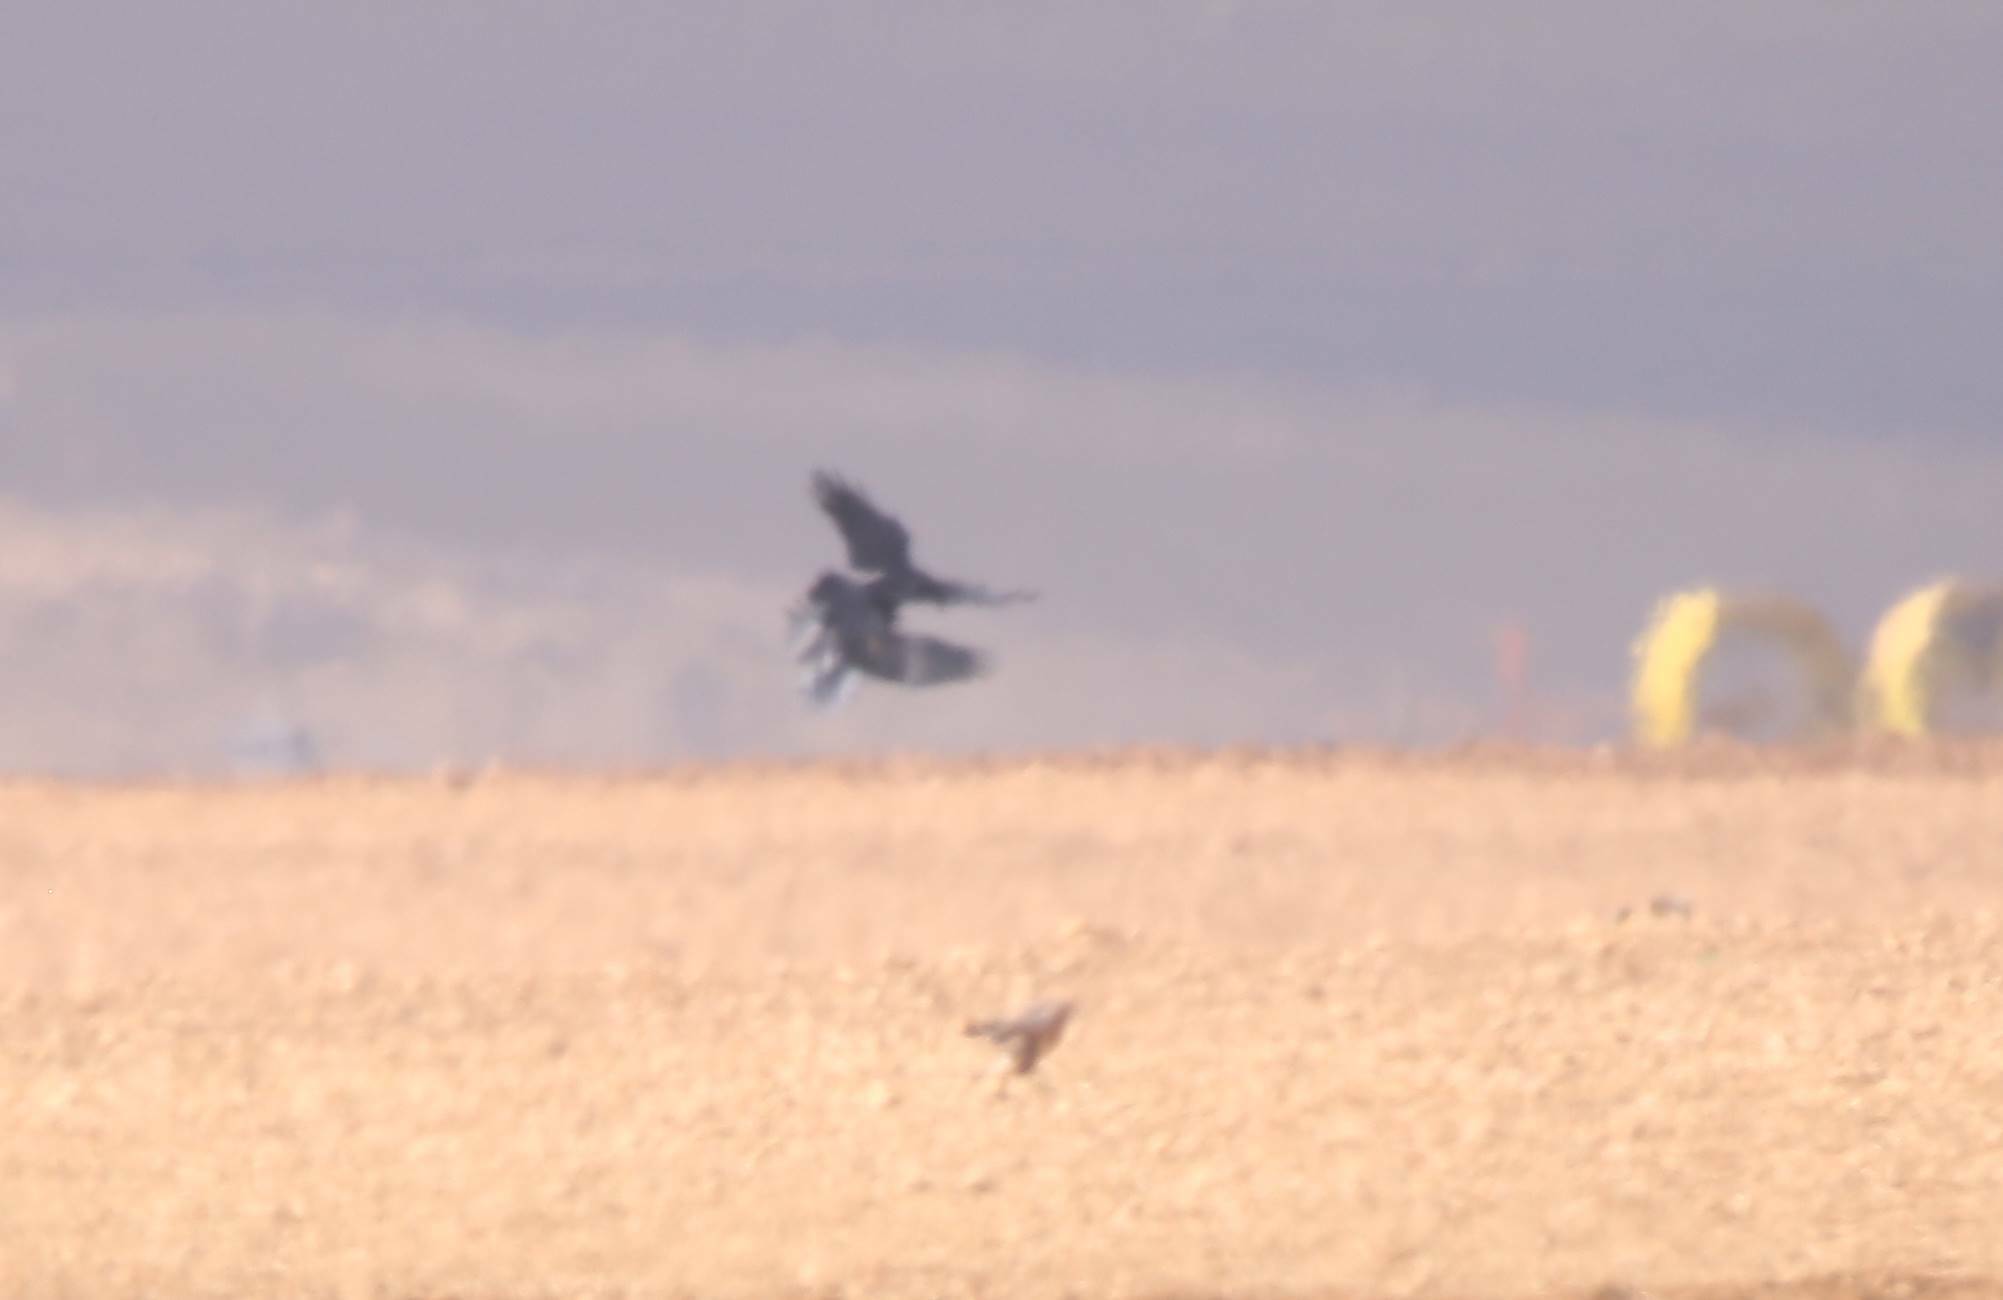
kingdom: Animalia
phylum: Chordata
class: Aves
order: Passeriformes
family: Corvidae
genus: Corvus
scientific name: Corvus corax
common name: Common raven
